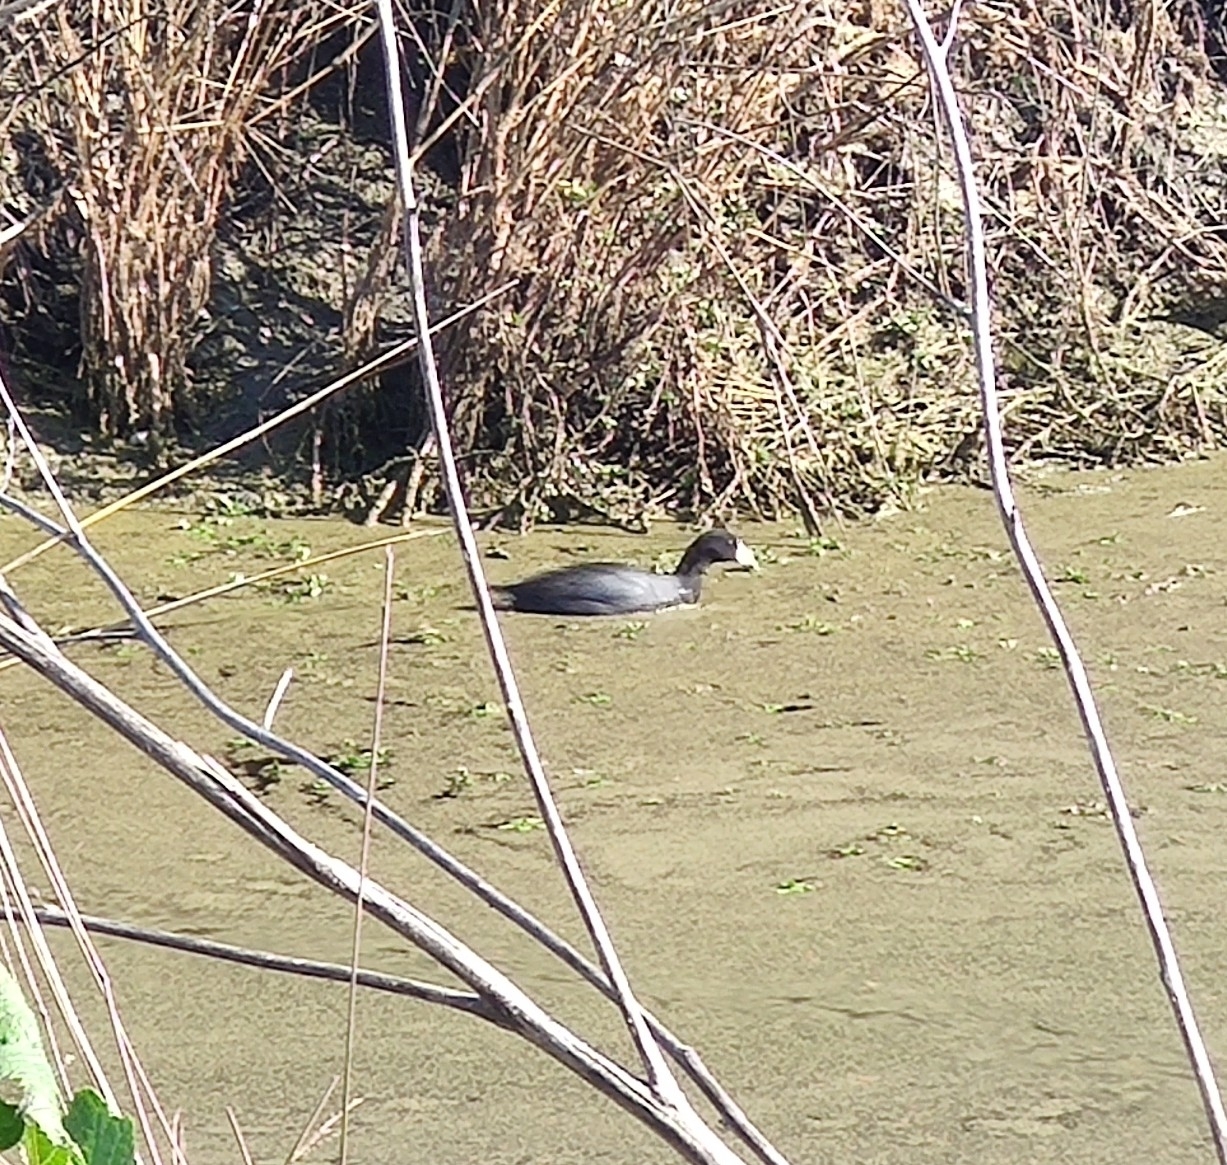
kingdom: Animalia
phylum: Chordata
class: Aves
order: Gruiformes
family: Rallidae
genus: Fulica
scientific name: Fulica americana
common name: American coot
